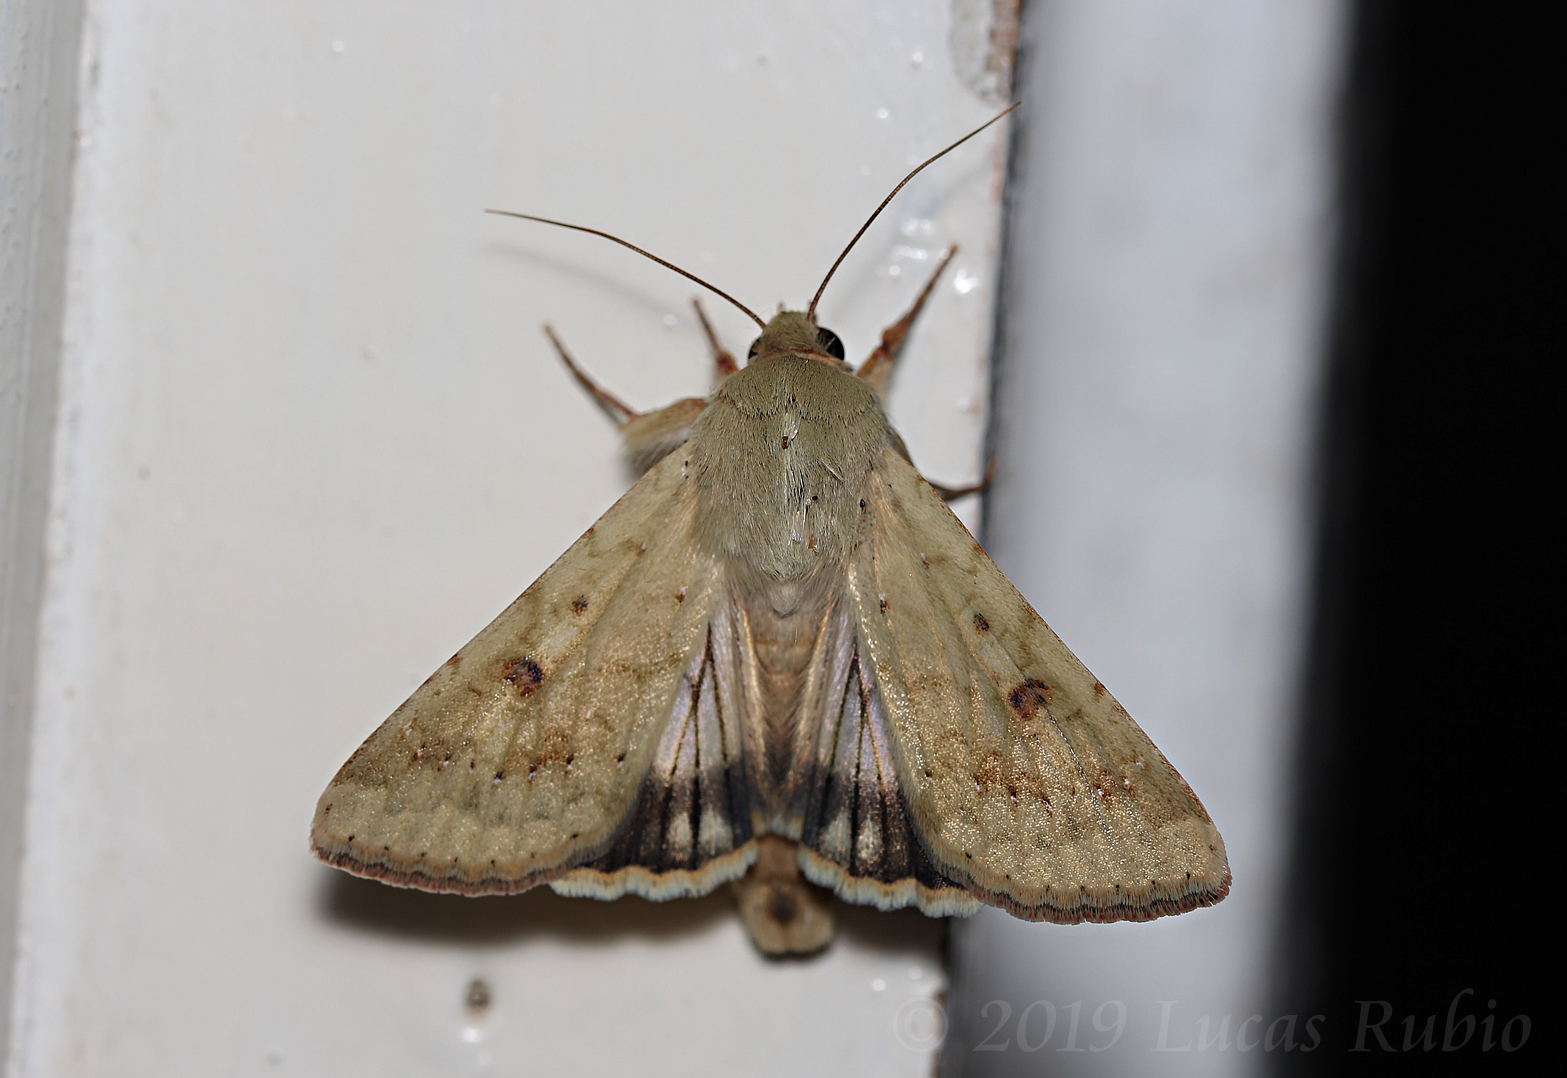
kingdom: Animalia
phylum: Arthropoda
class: Insecta
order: Lepidoptera
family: Noctuidae
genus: Helicoverpa
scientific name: Helicoverpa
